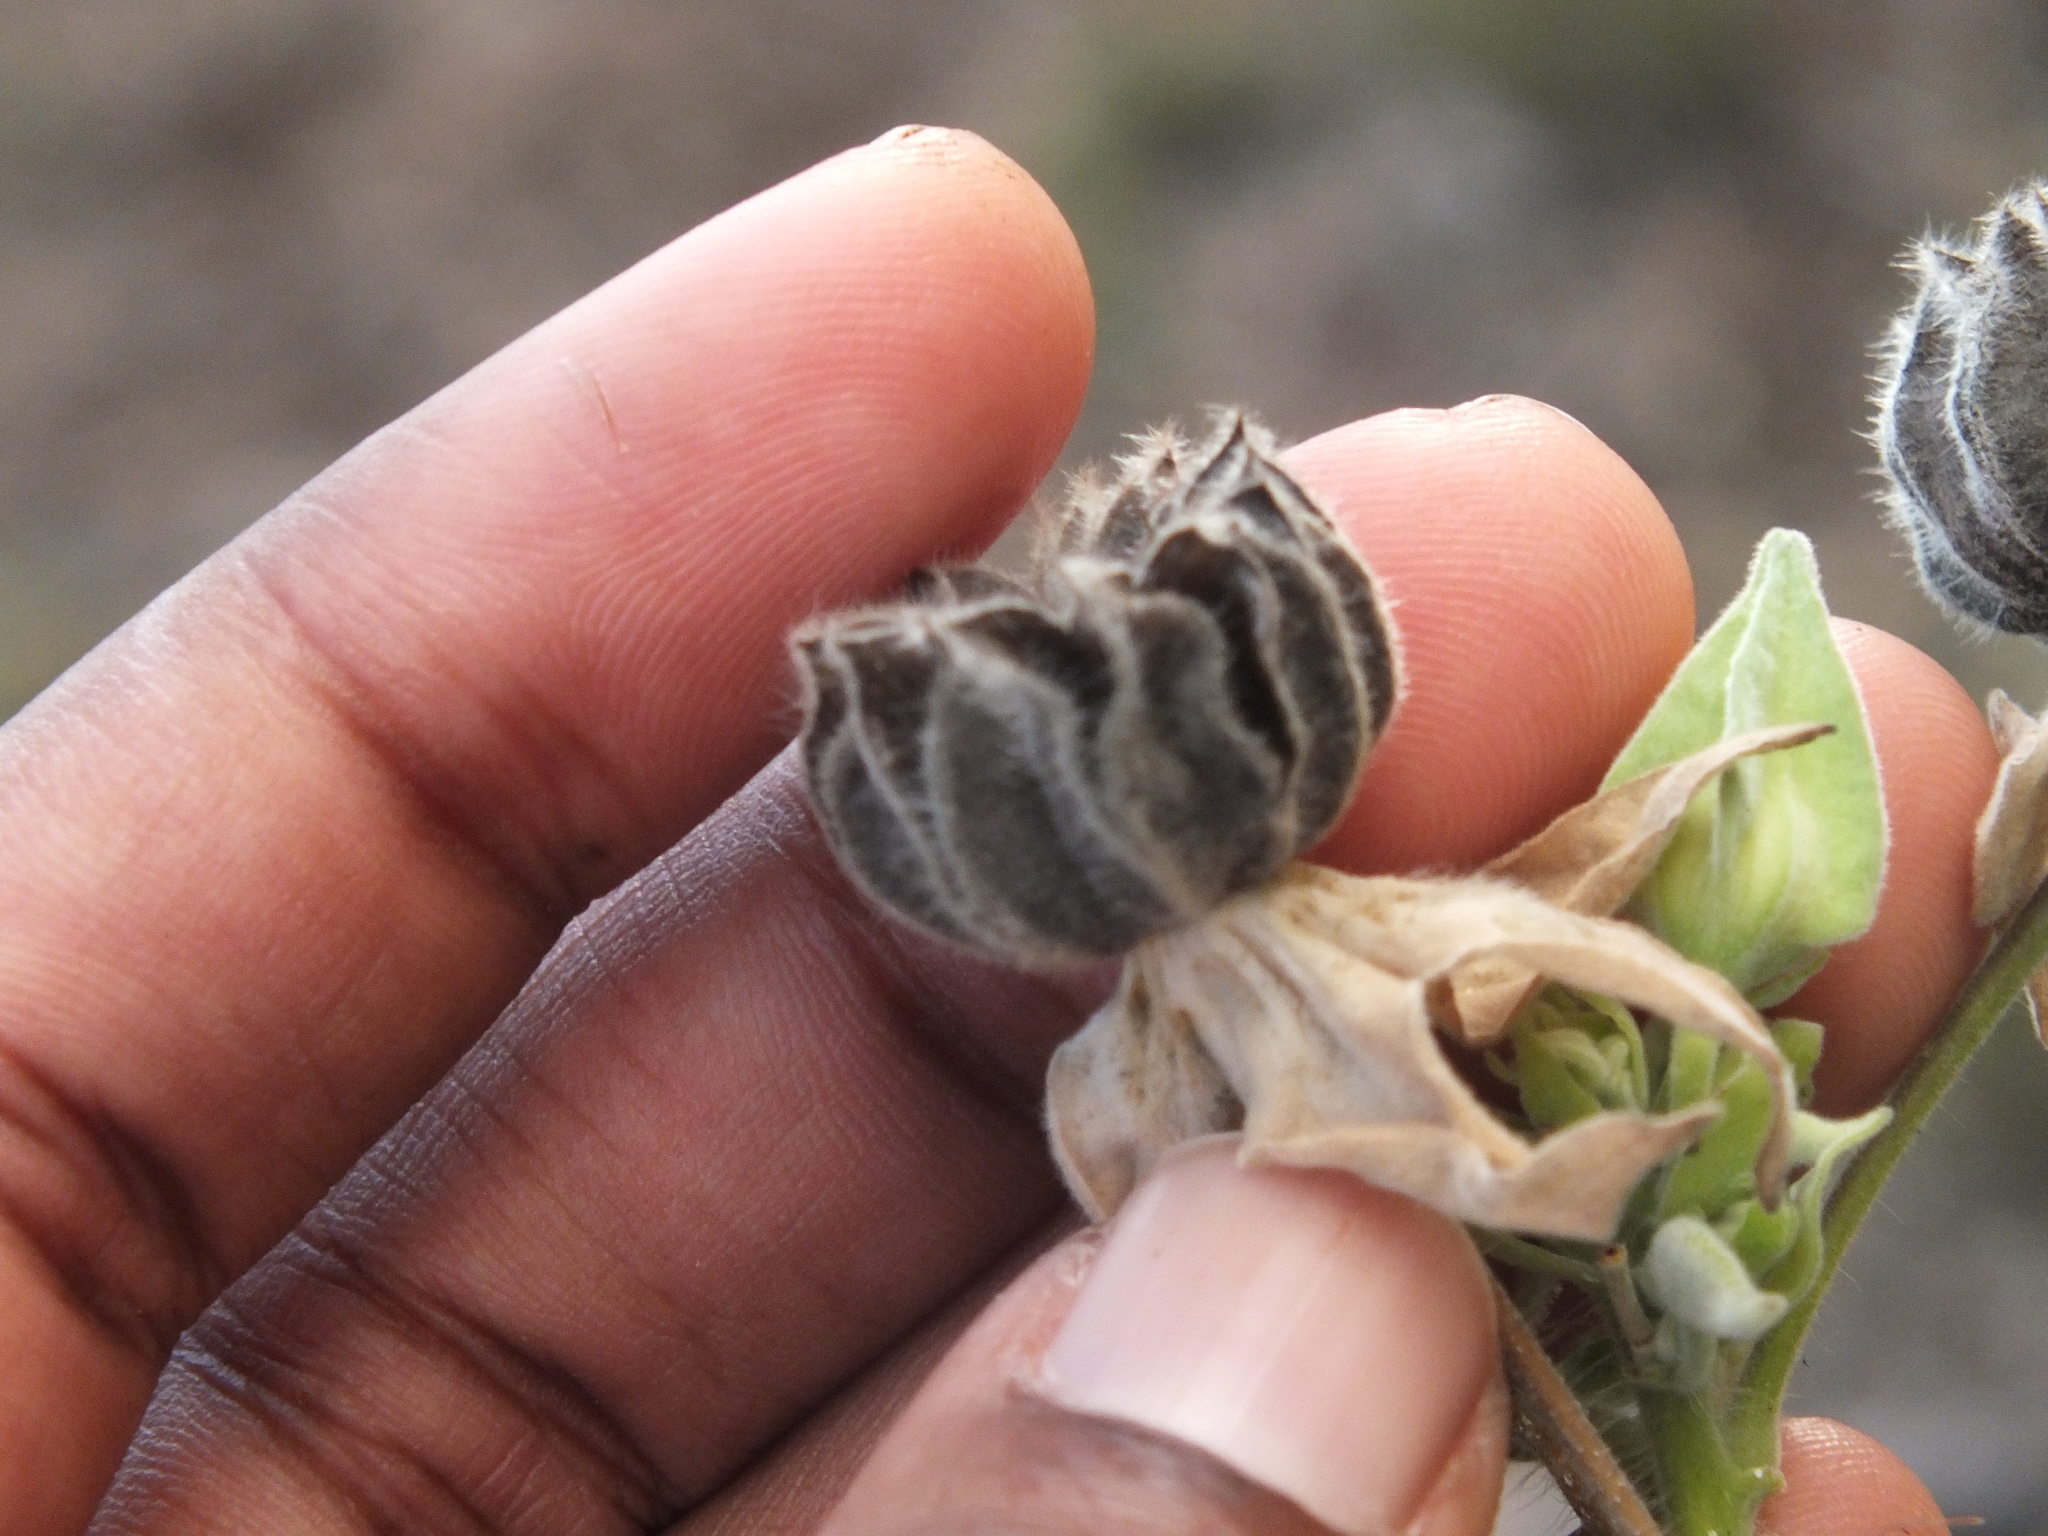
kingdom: Plantae
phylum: Tracheophyta
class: Magnoliopsida
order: Malvales
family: Malvaceae
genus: Abutilon
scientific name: Abutilon grandifolium
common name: Hairy abutilon
